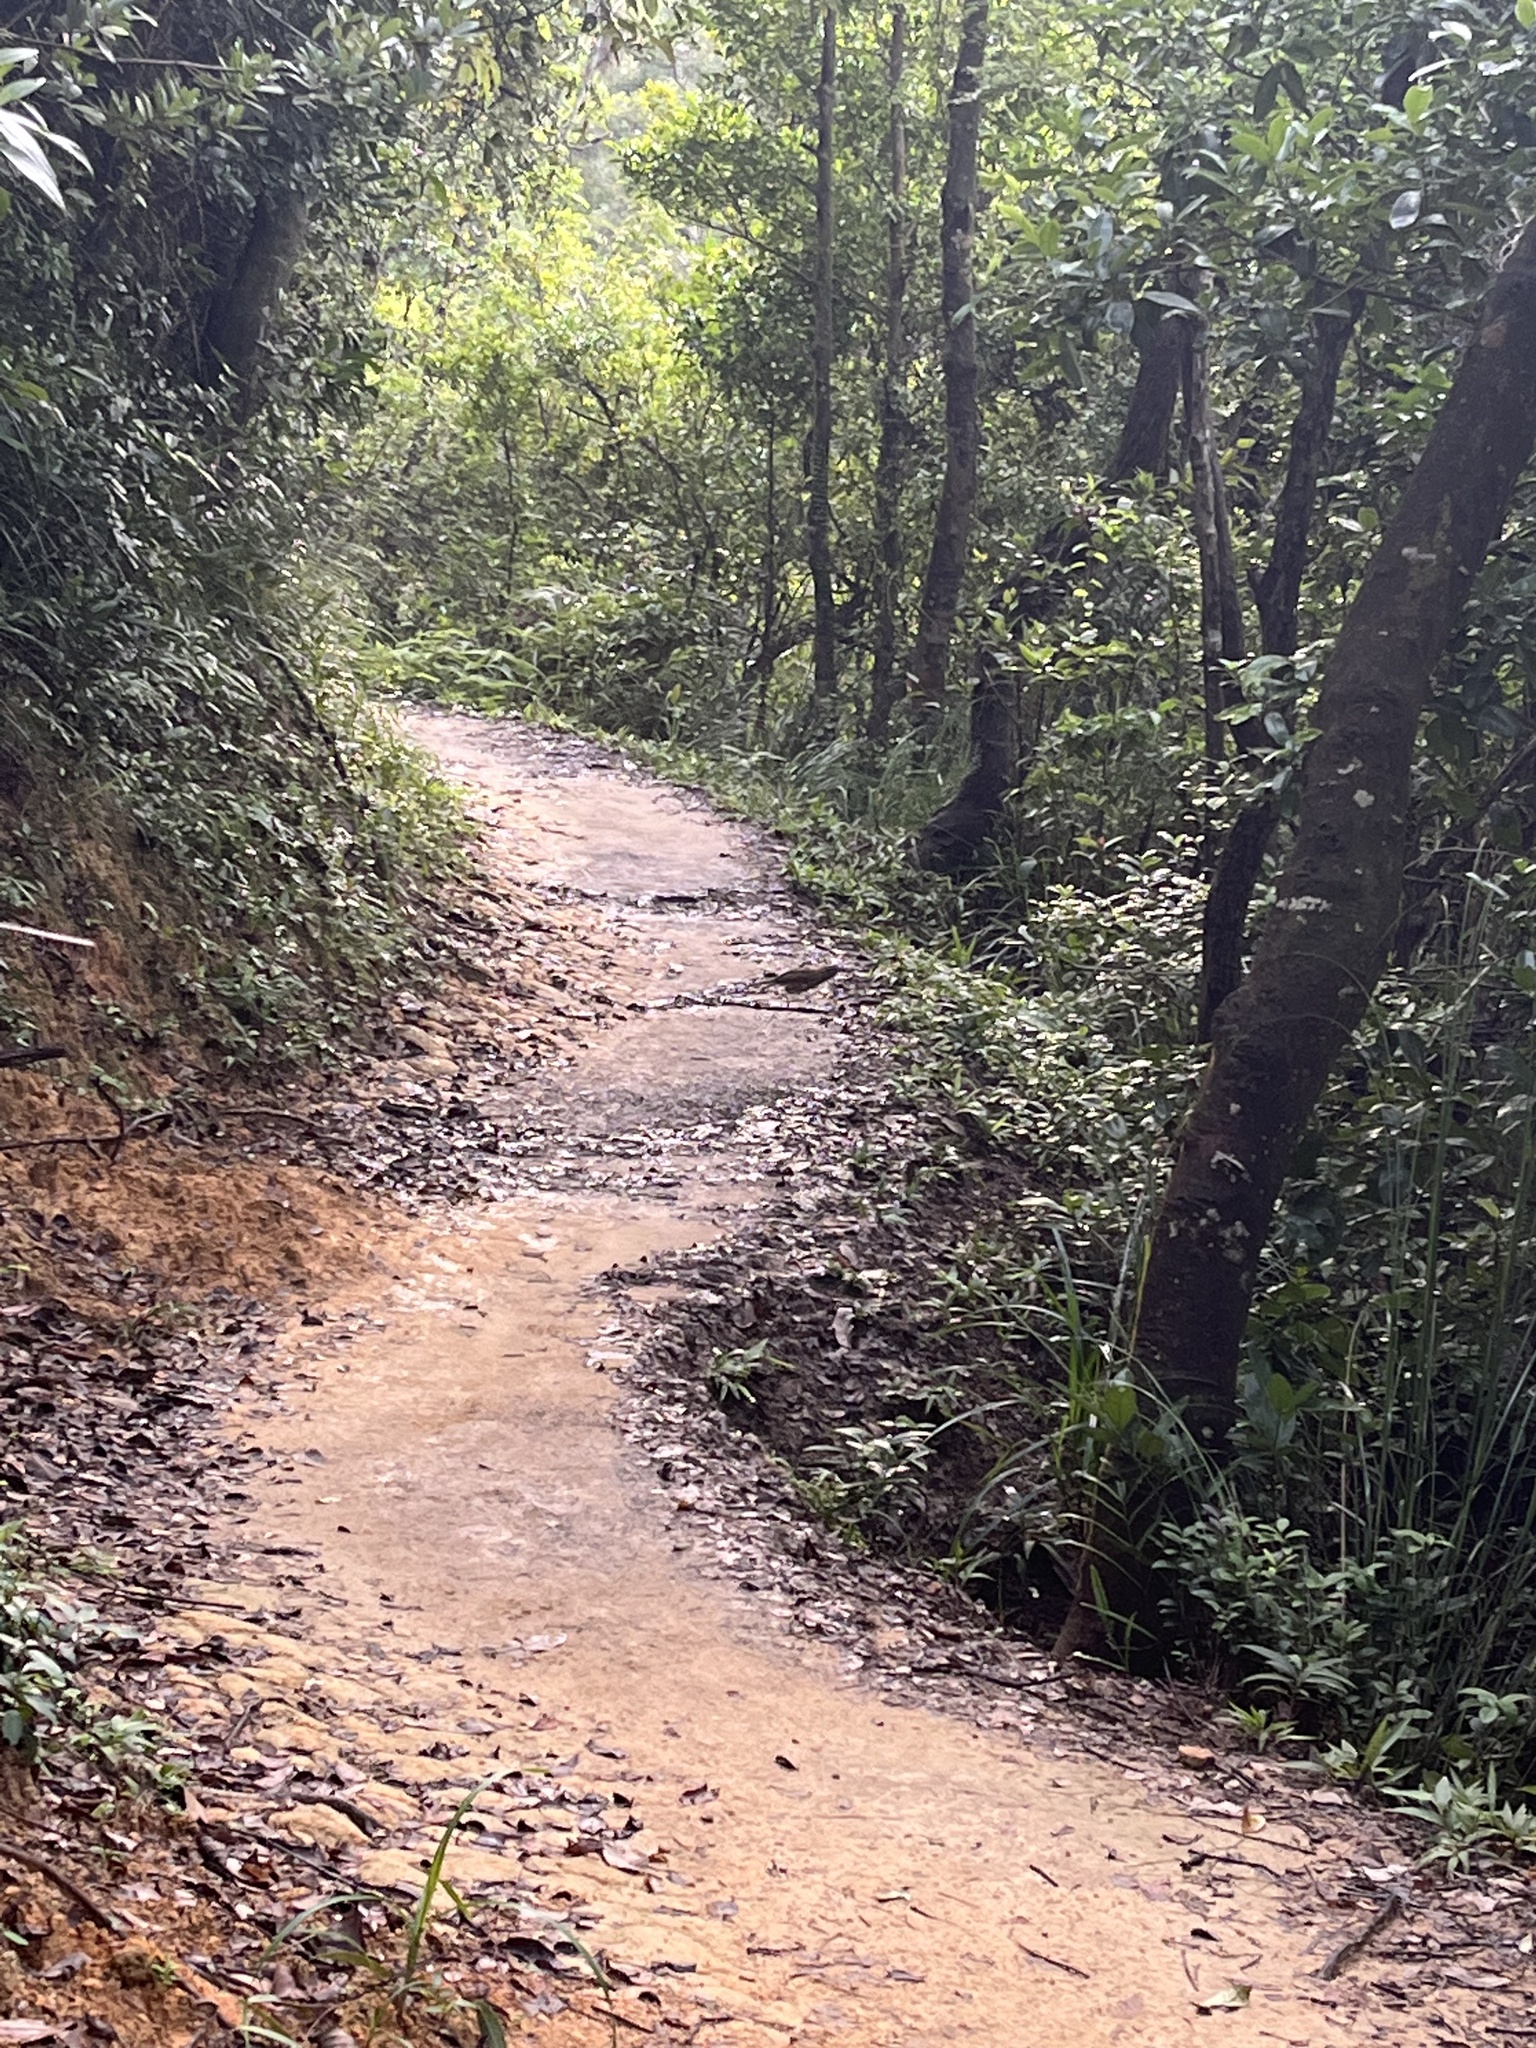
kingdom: Animalia
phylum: Chordata
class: Aves
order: Passeriformes
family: Leiothrichidae
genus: Garrulax
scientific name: Garrulax pectoralis
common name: Greater necklaced laughingthrush
